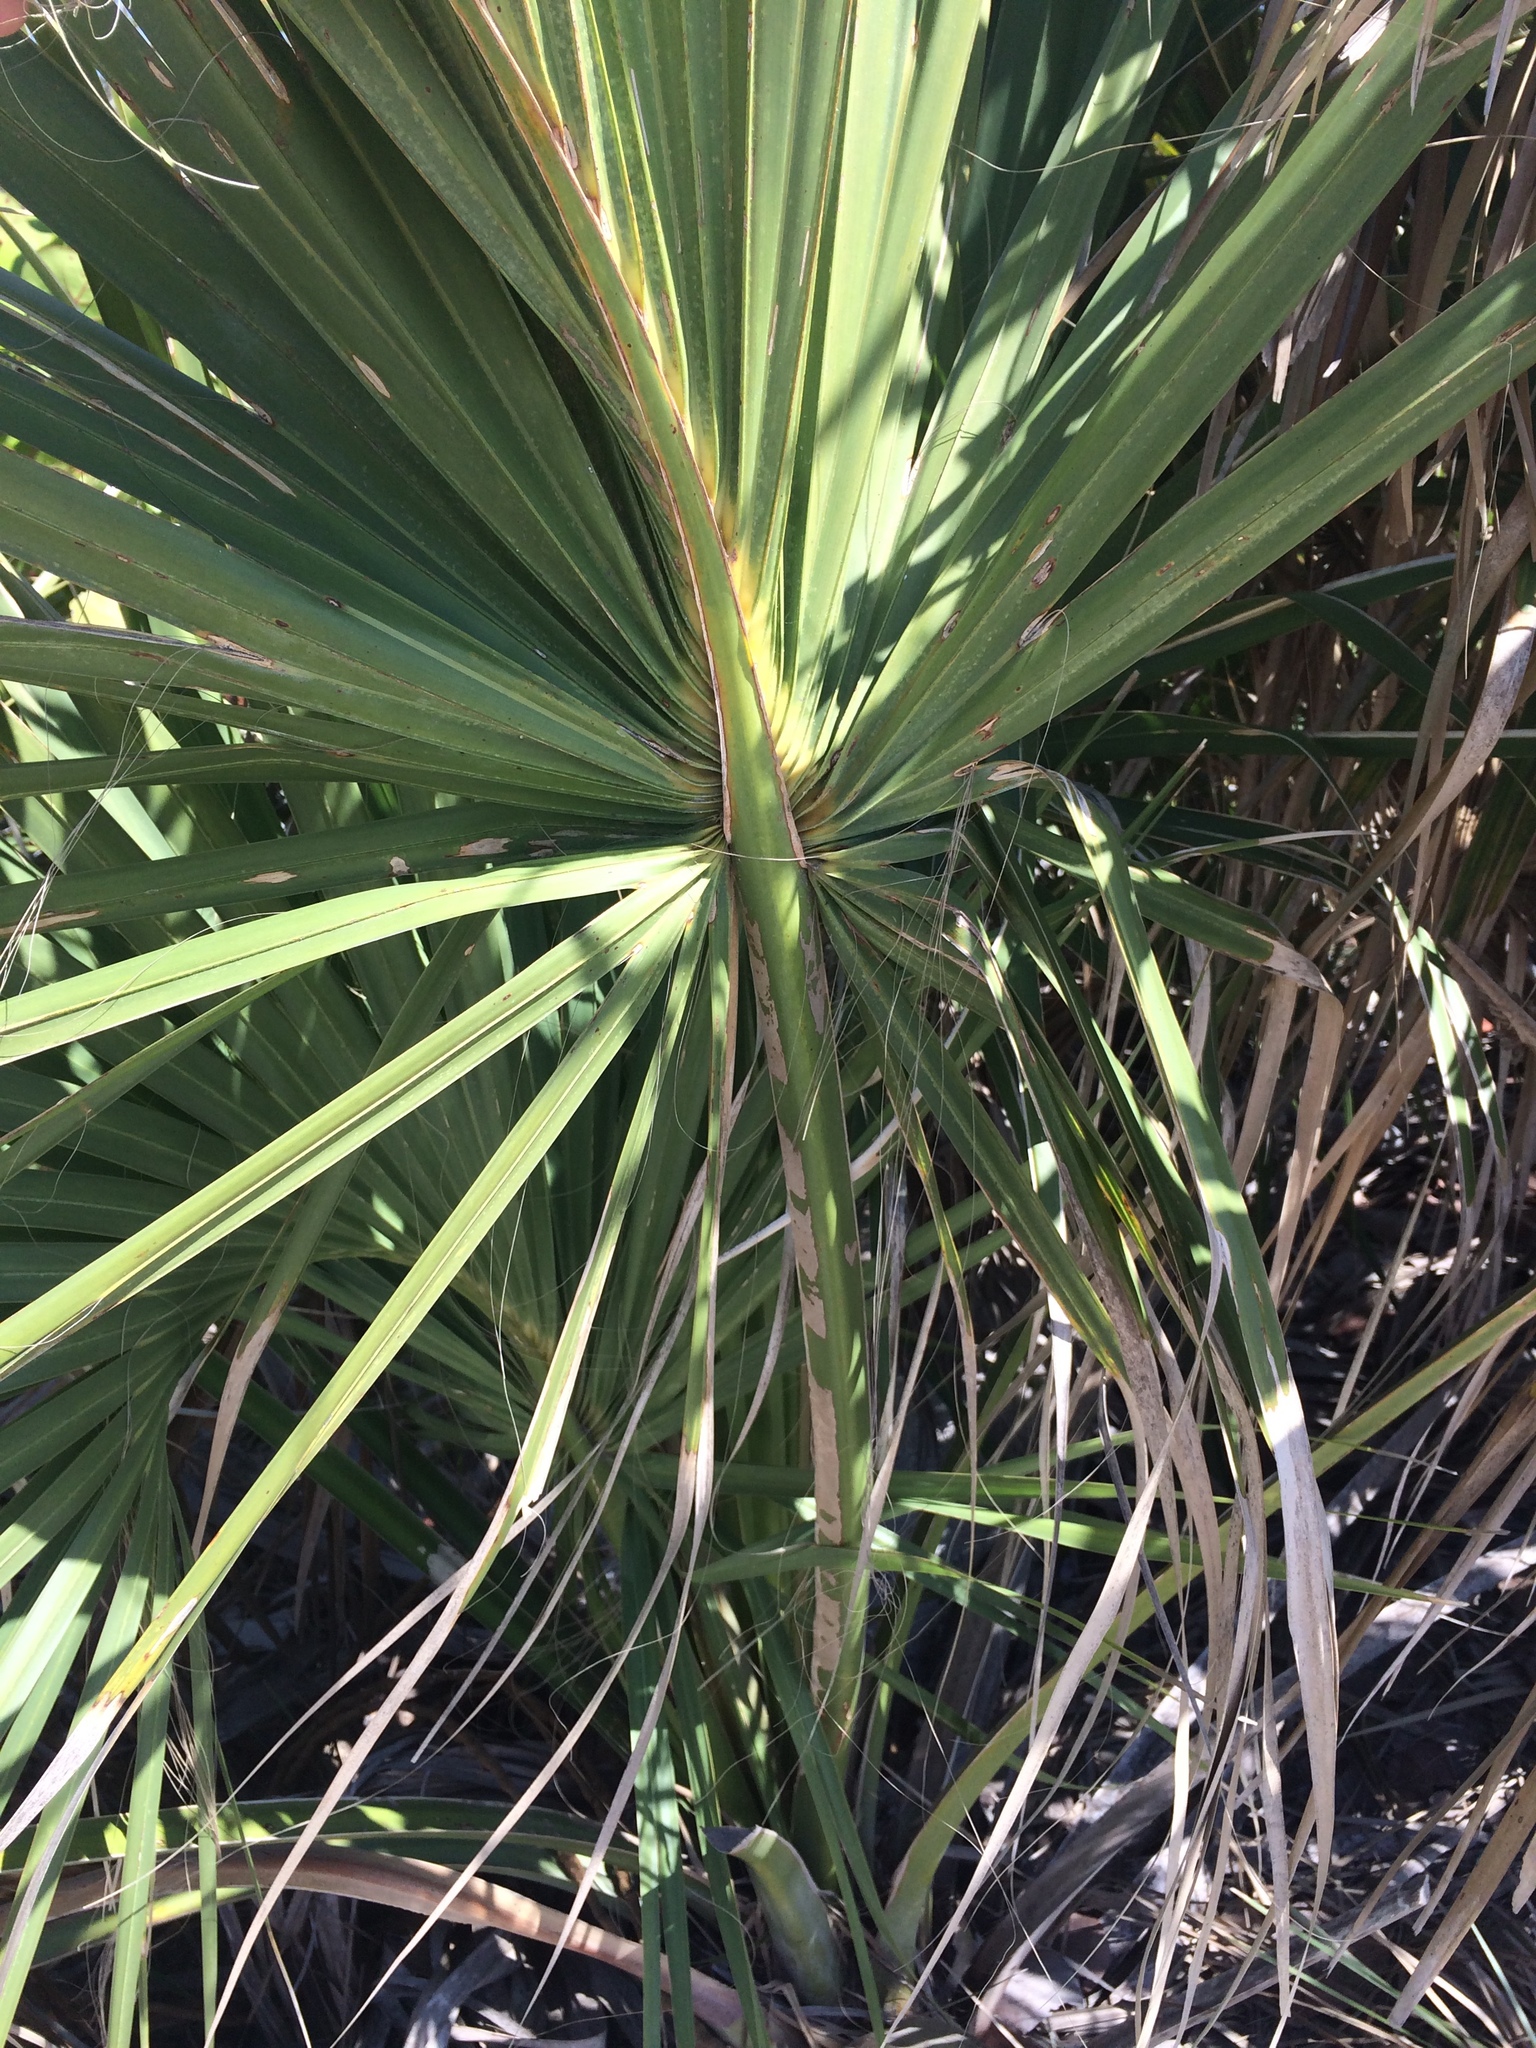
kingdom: Plantae
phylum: Tracheophyta
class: Liliopsida
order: Arecales
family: Arecaceae
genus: Sabal
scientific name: Sabal palmetto
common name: Blue palmetto
